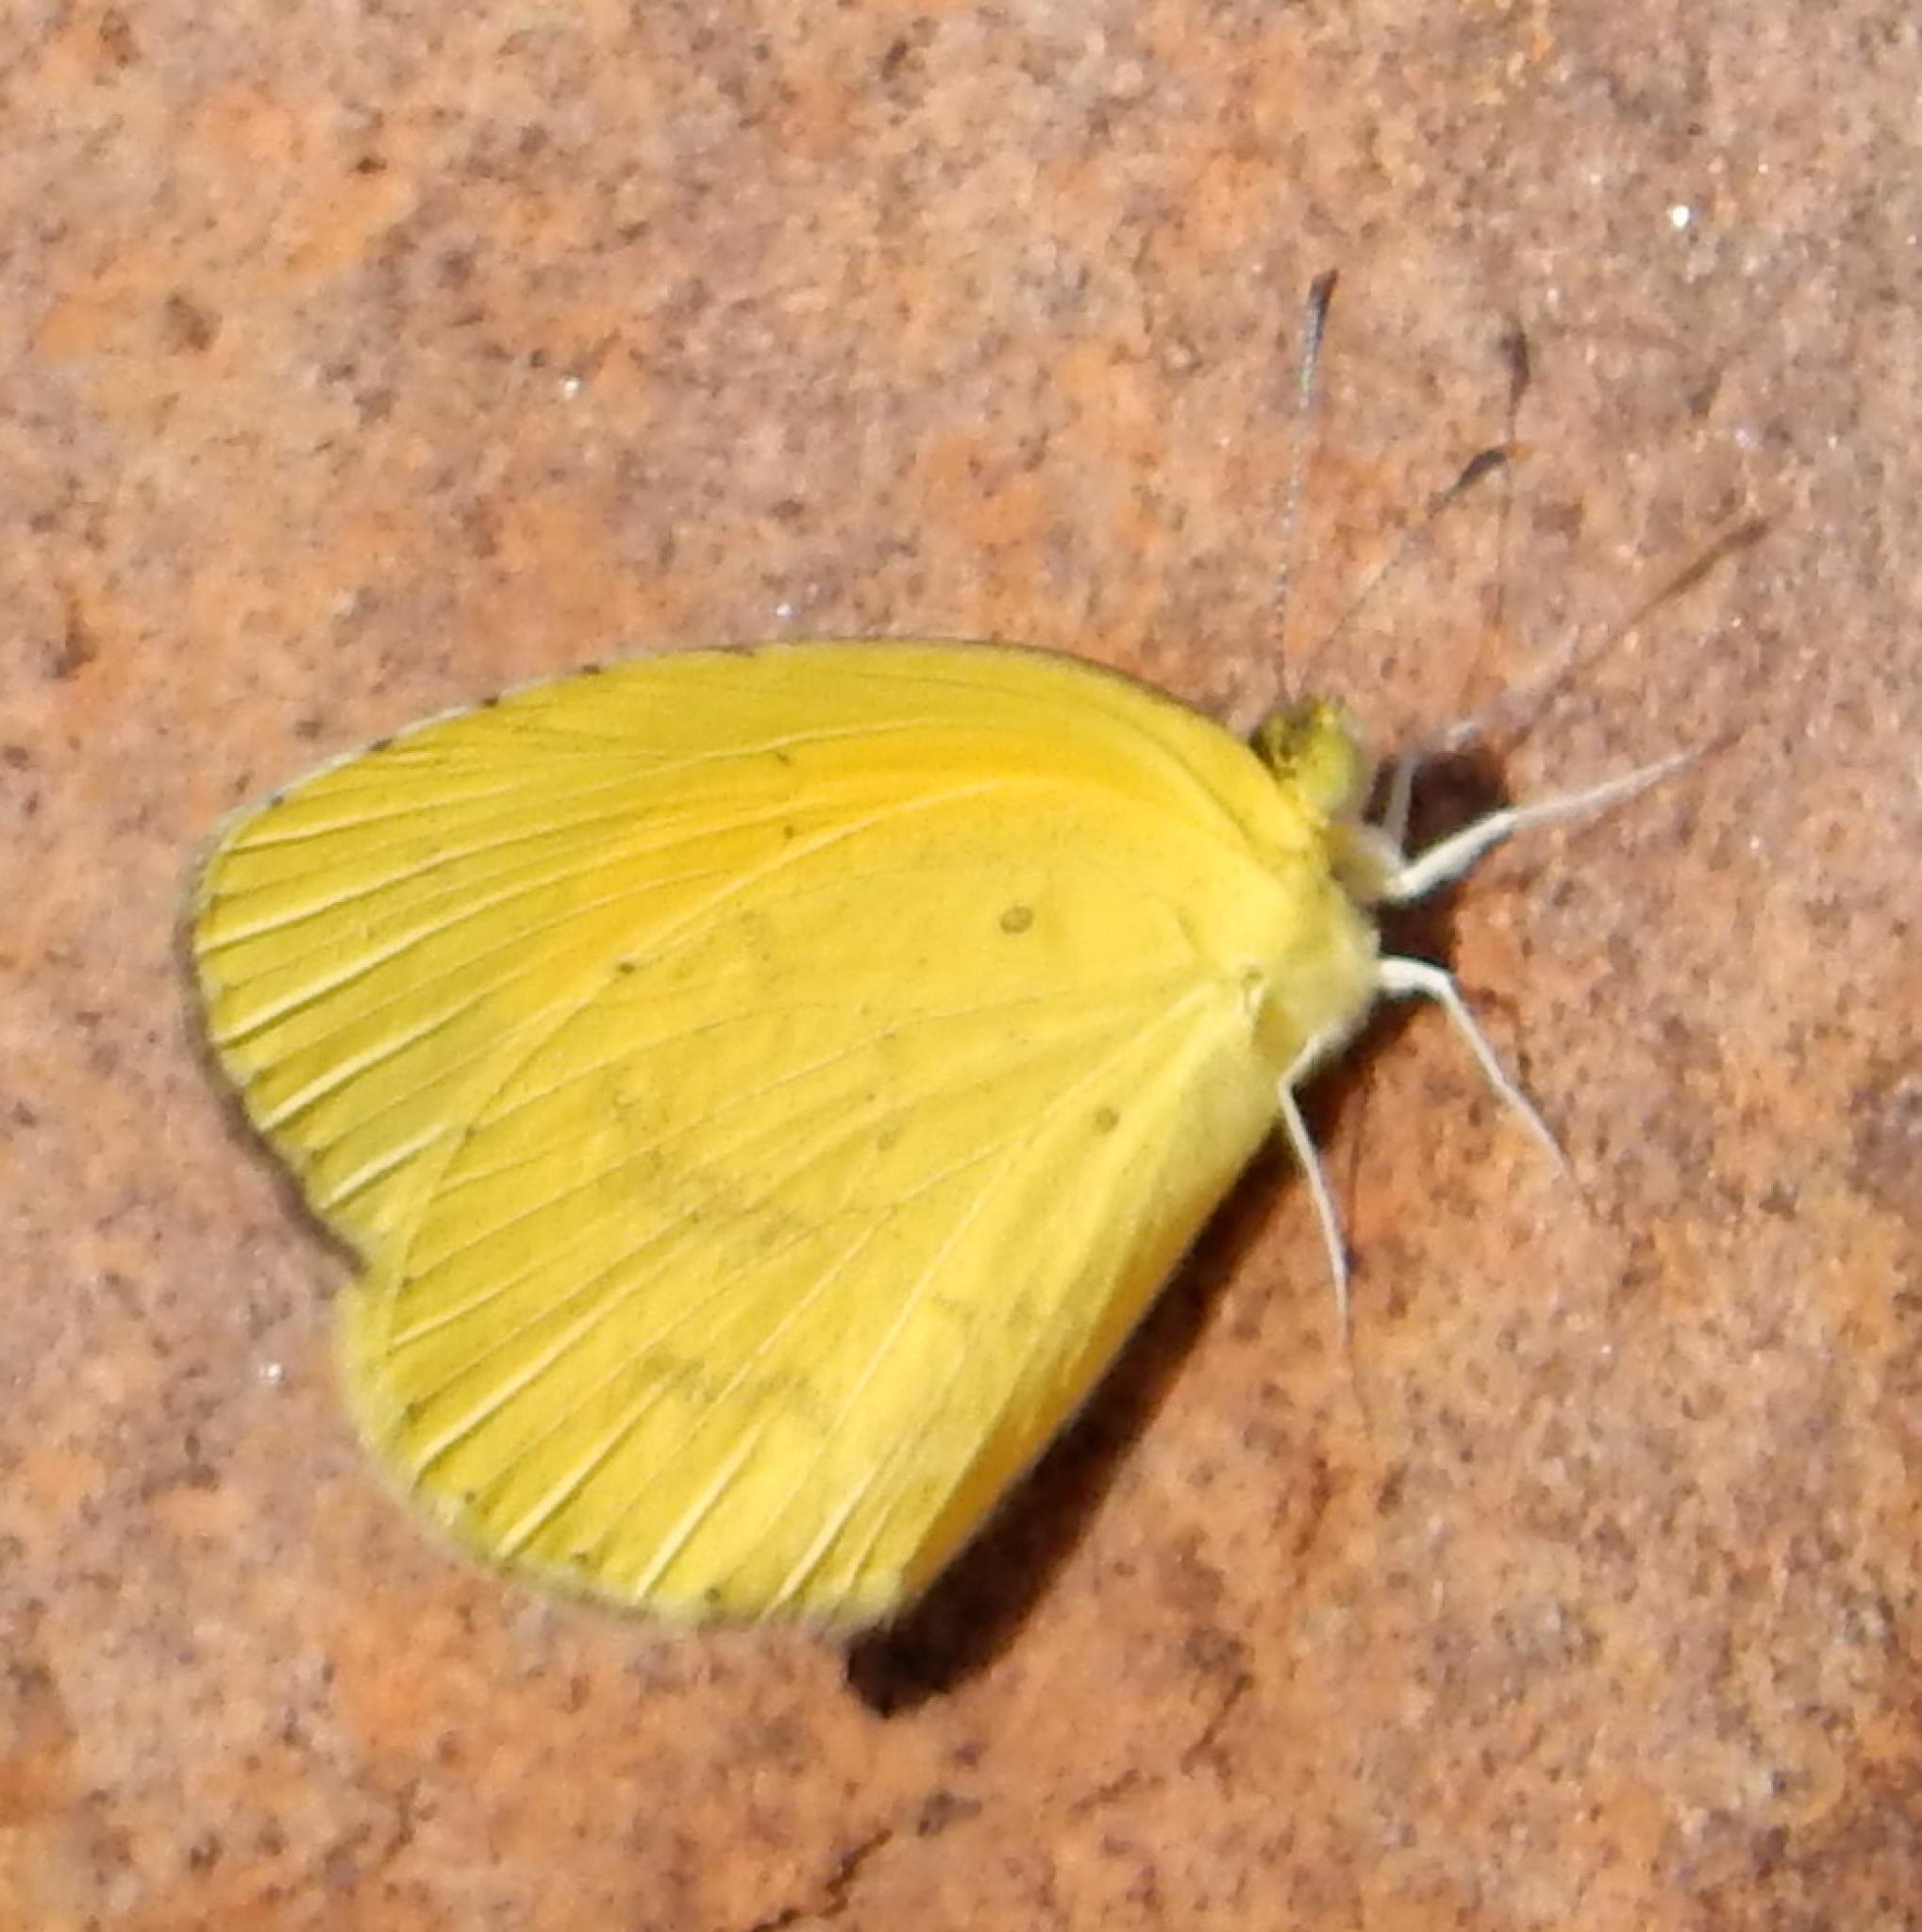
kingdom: Animalia
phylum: Arthropoda
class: Insecta
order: Lepidoptera
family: Pieridae
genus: Eurema
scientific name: Eurema brigitta
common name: Small grass yellow
